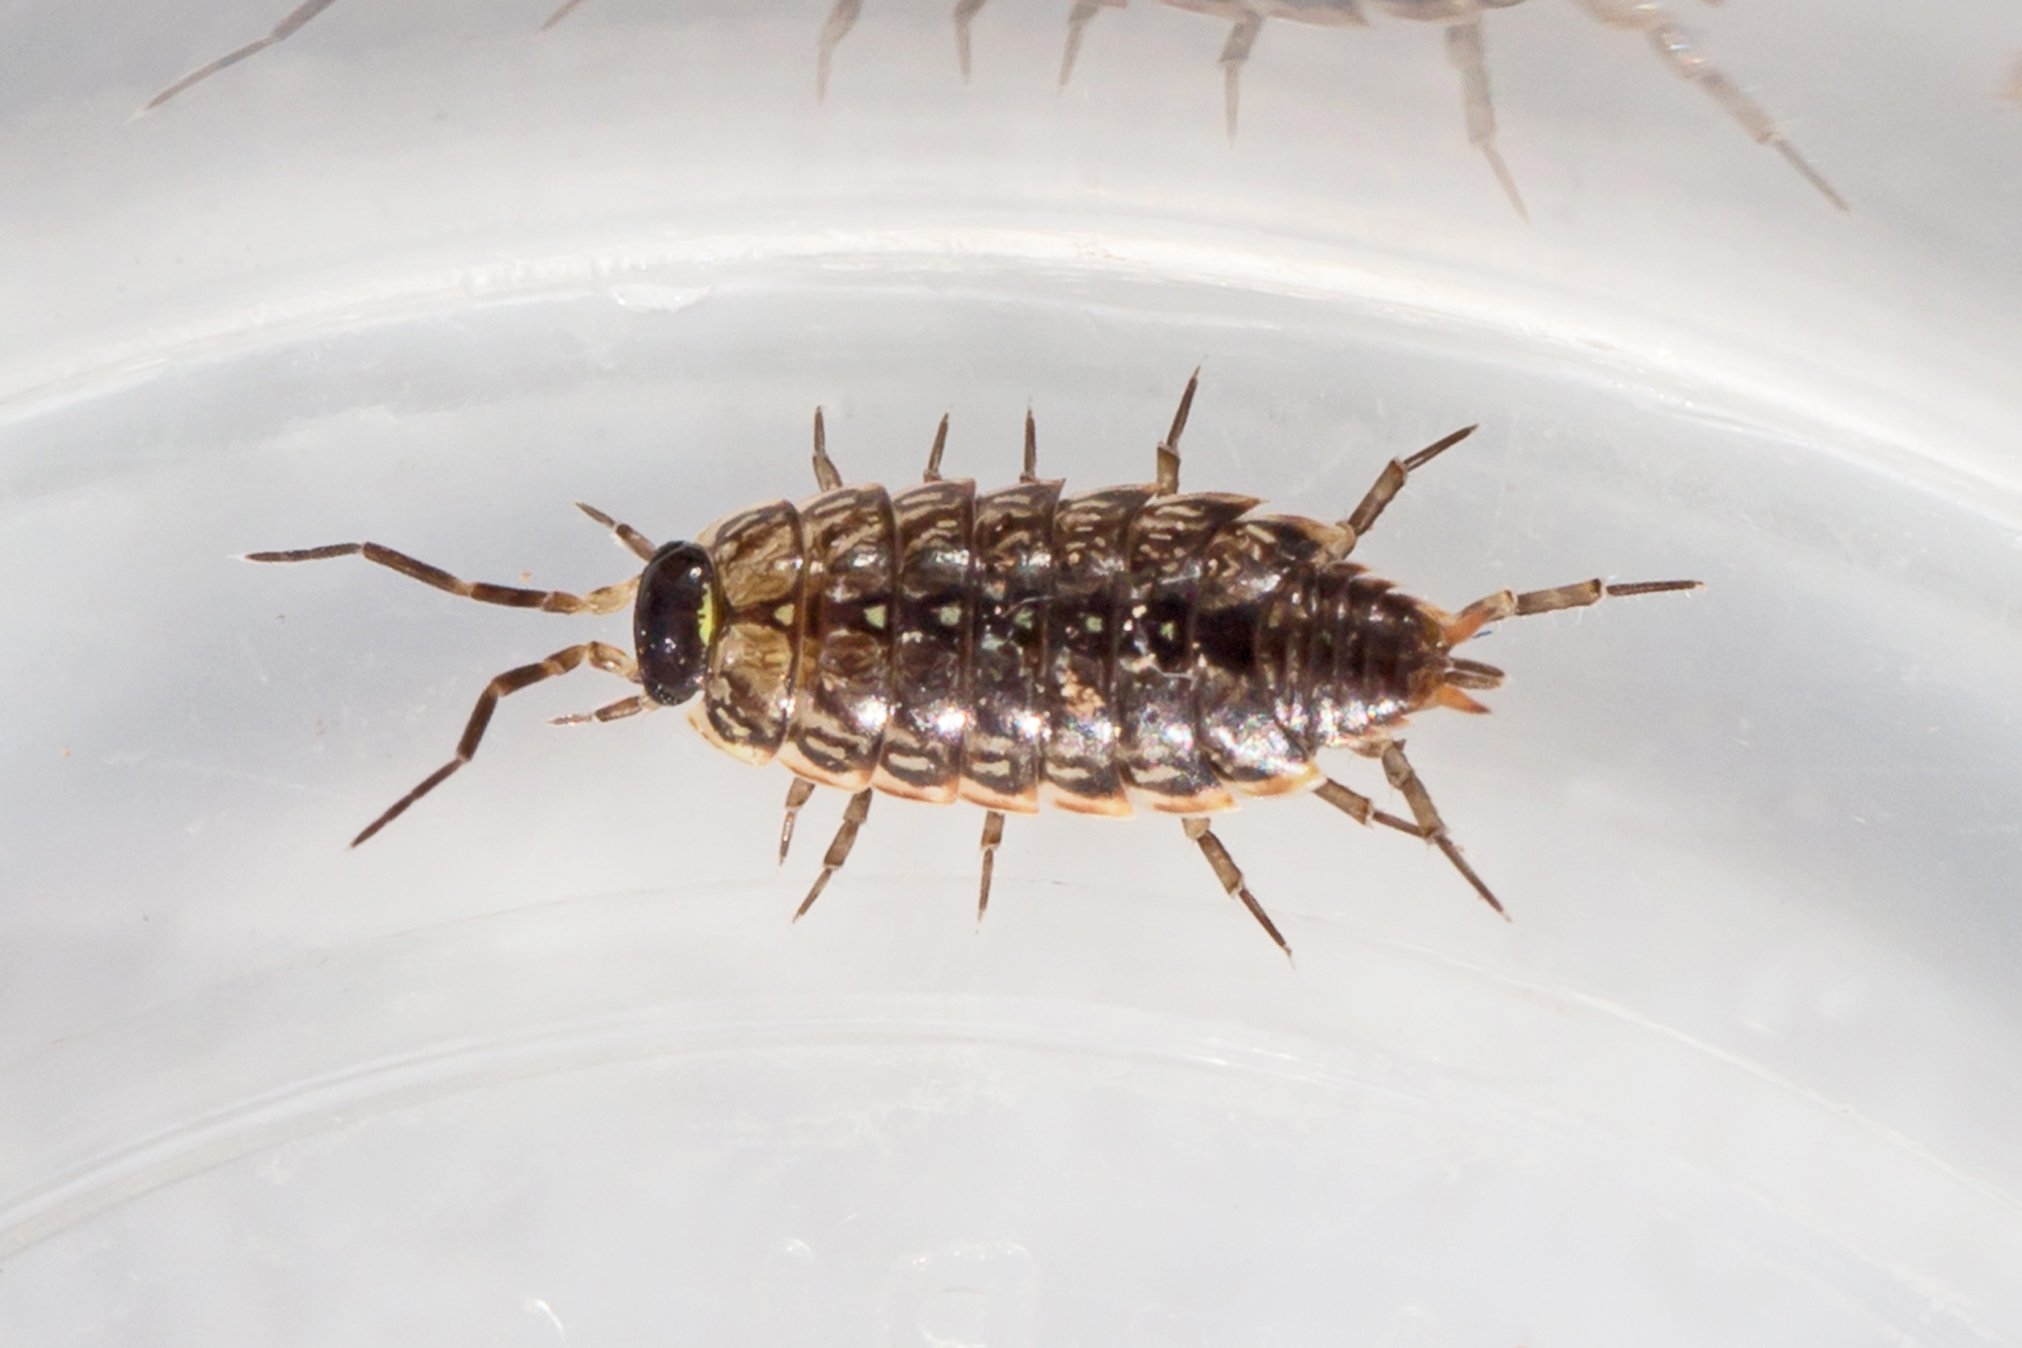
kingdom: Animalia
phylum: Arthropoda
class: Malacostraca
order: Isopoda
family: Philosciidae
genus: Philoscia
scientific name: Philoscia muscorum
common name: Common striped woodlouse
